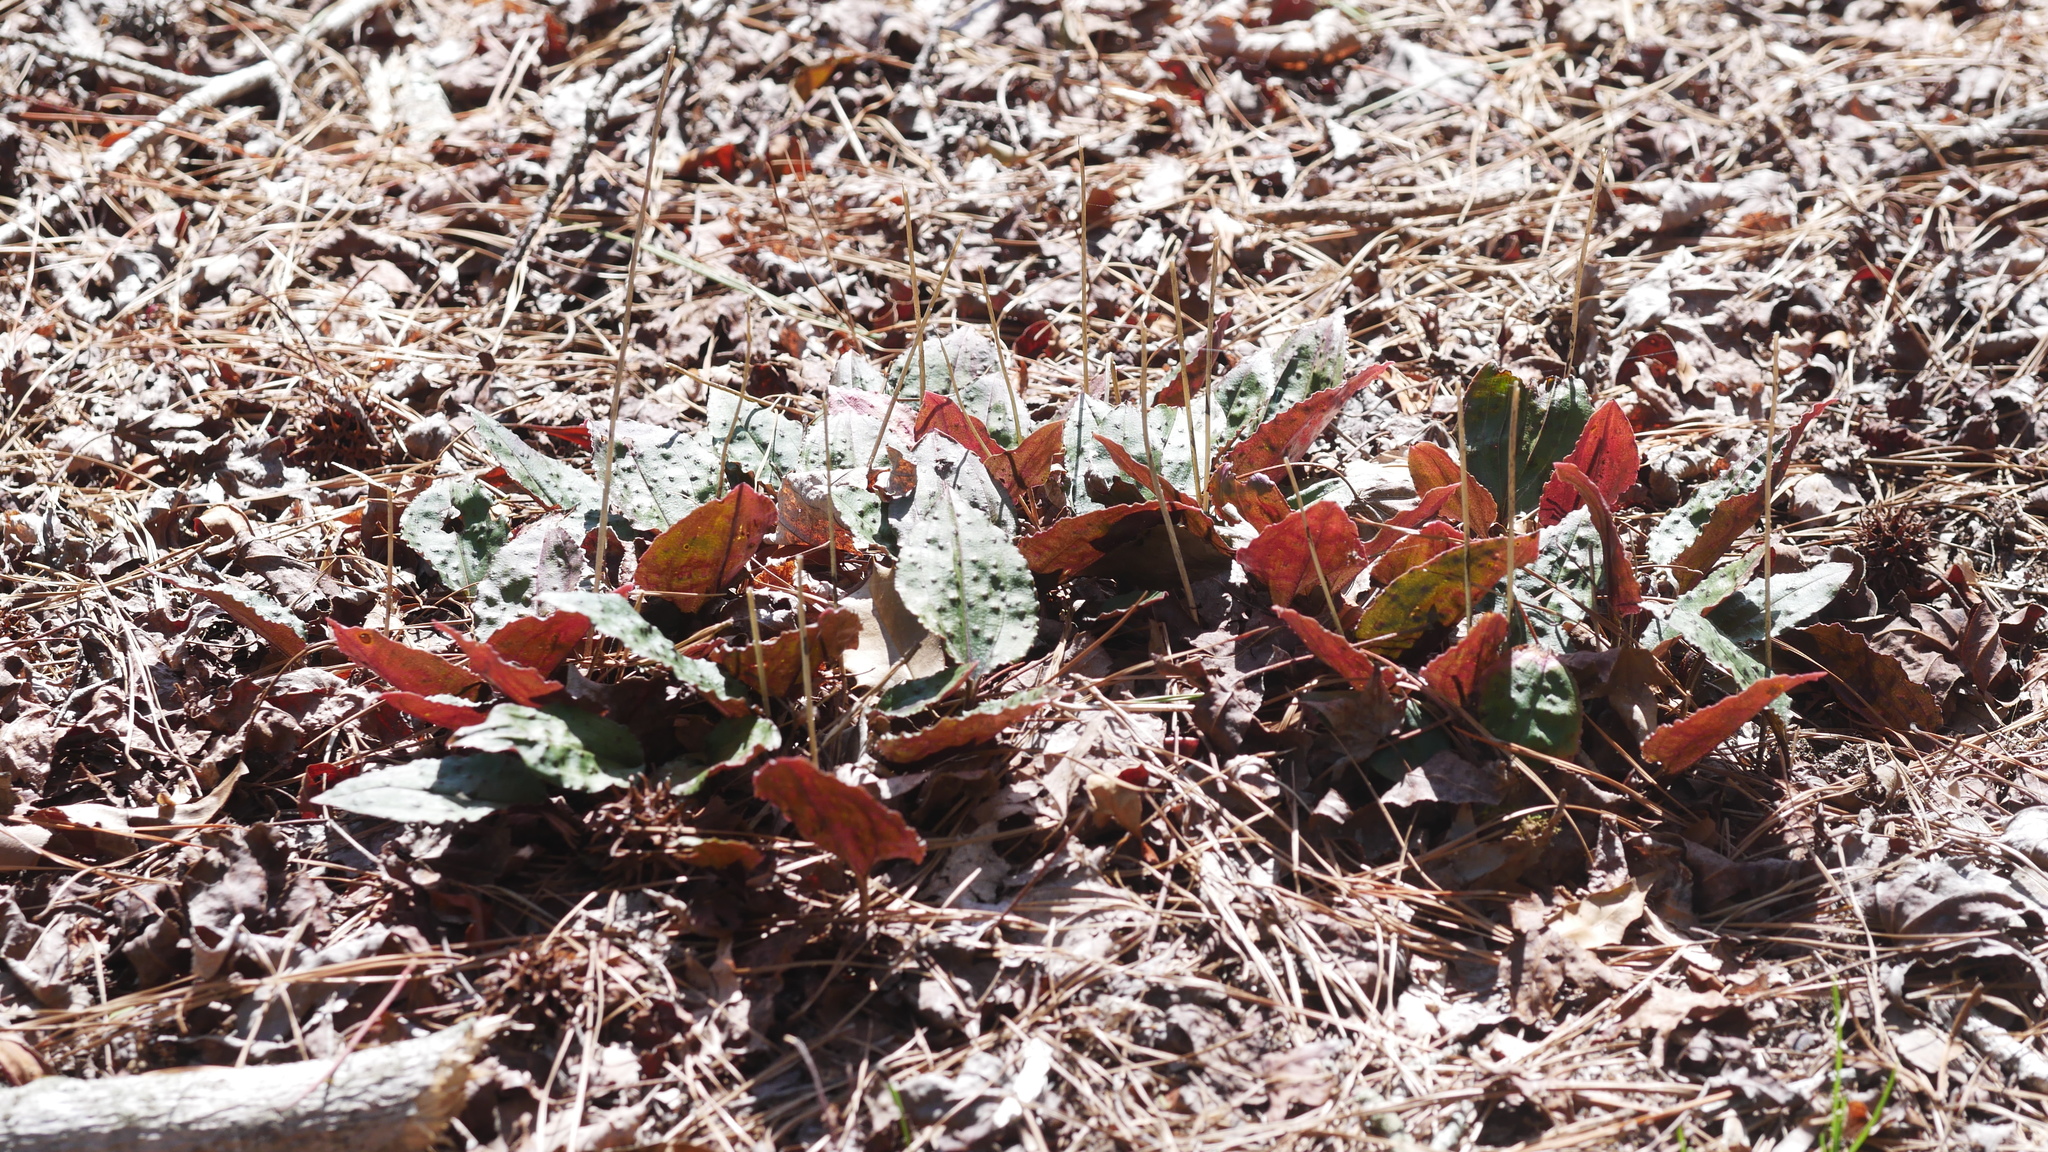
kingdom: Plantae
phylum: Tracheophyta
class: Liliopsida
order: Asparagales
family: Orchidaceae
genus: Tipularia
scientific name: Tipularia discolor
